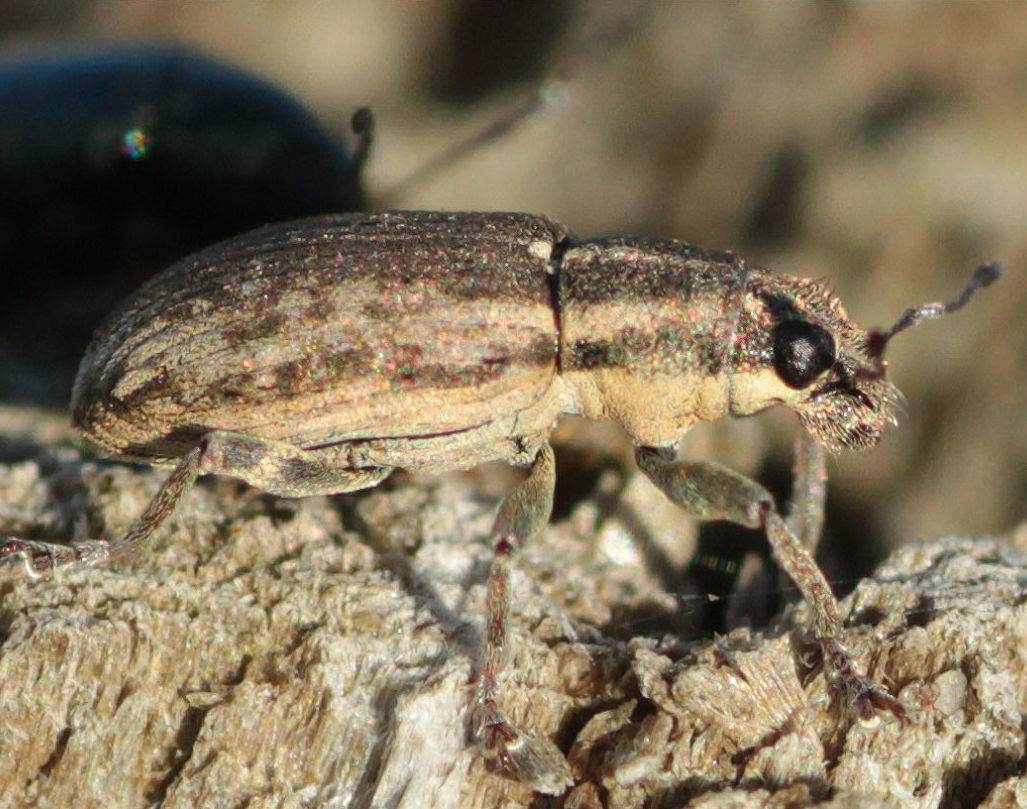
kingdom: Animalia
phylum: Arthropoda
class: Insecta
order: Coleoptera
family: Curculionidae
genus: Sitona
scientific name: Sitona humeralis
